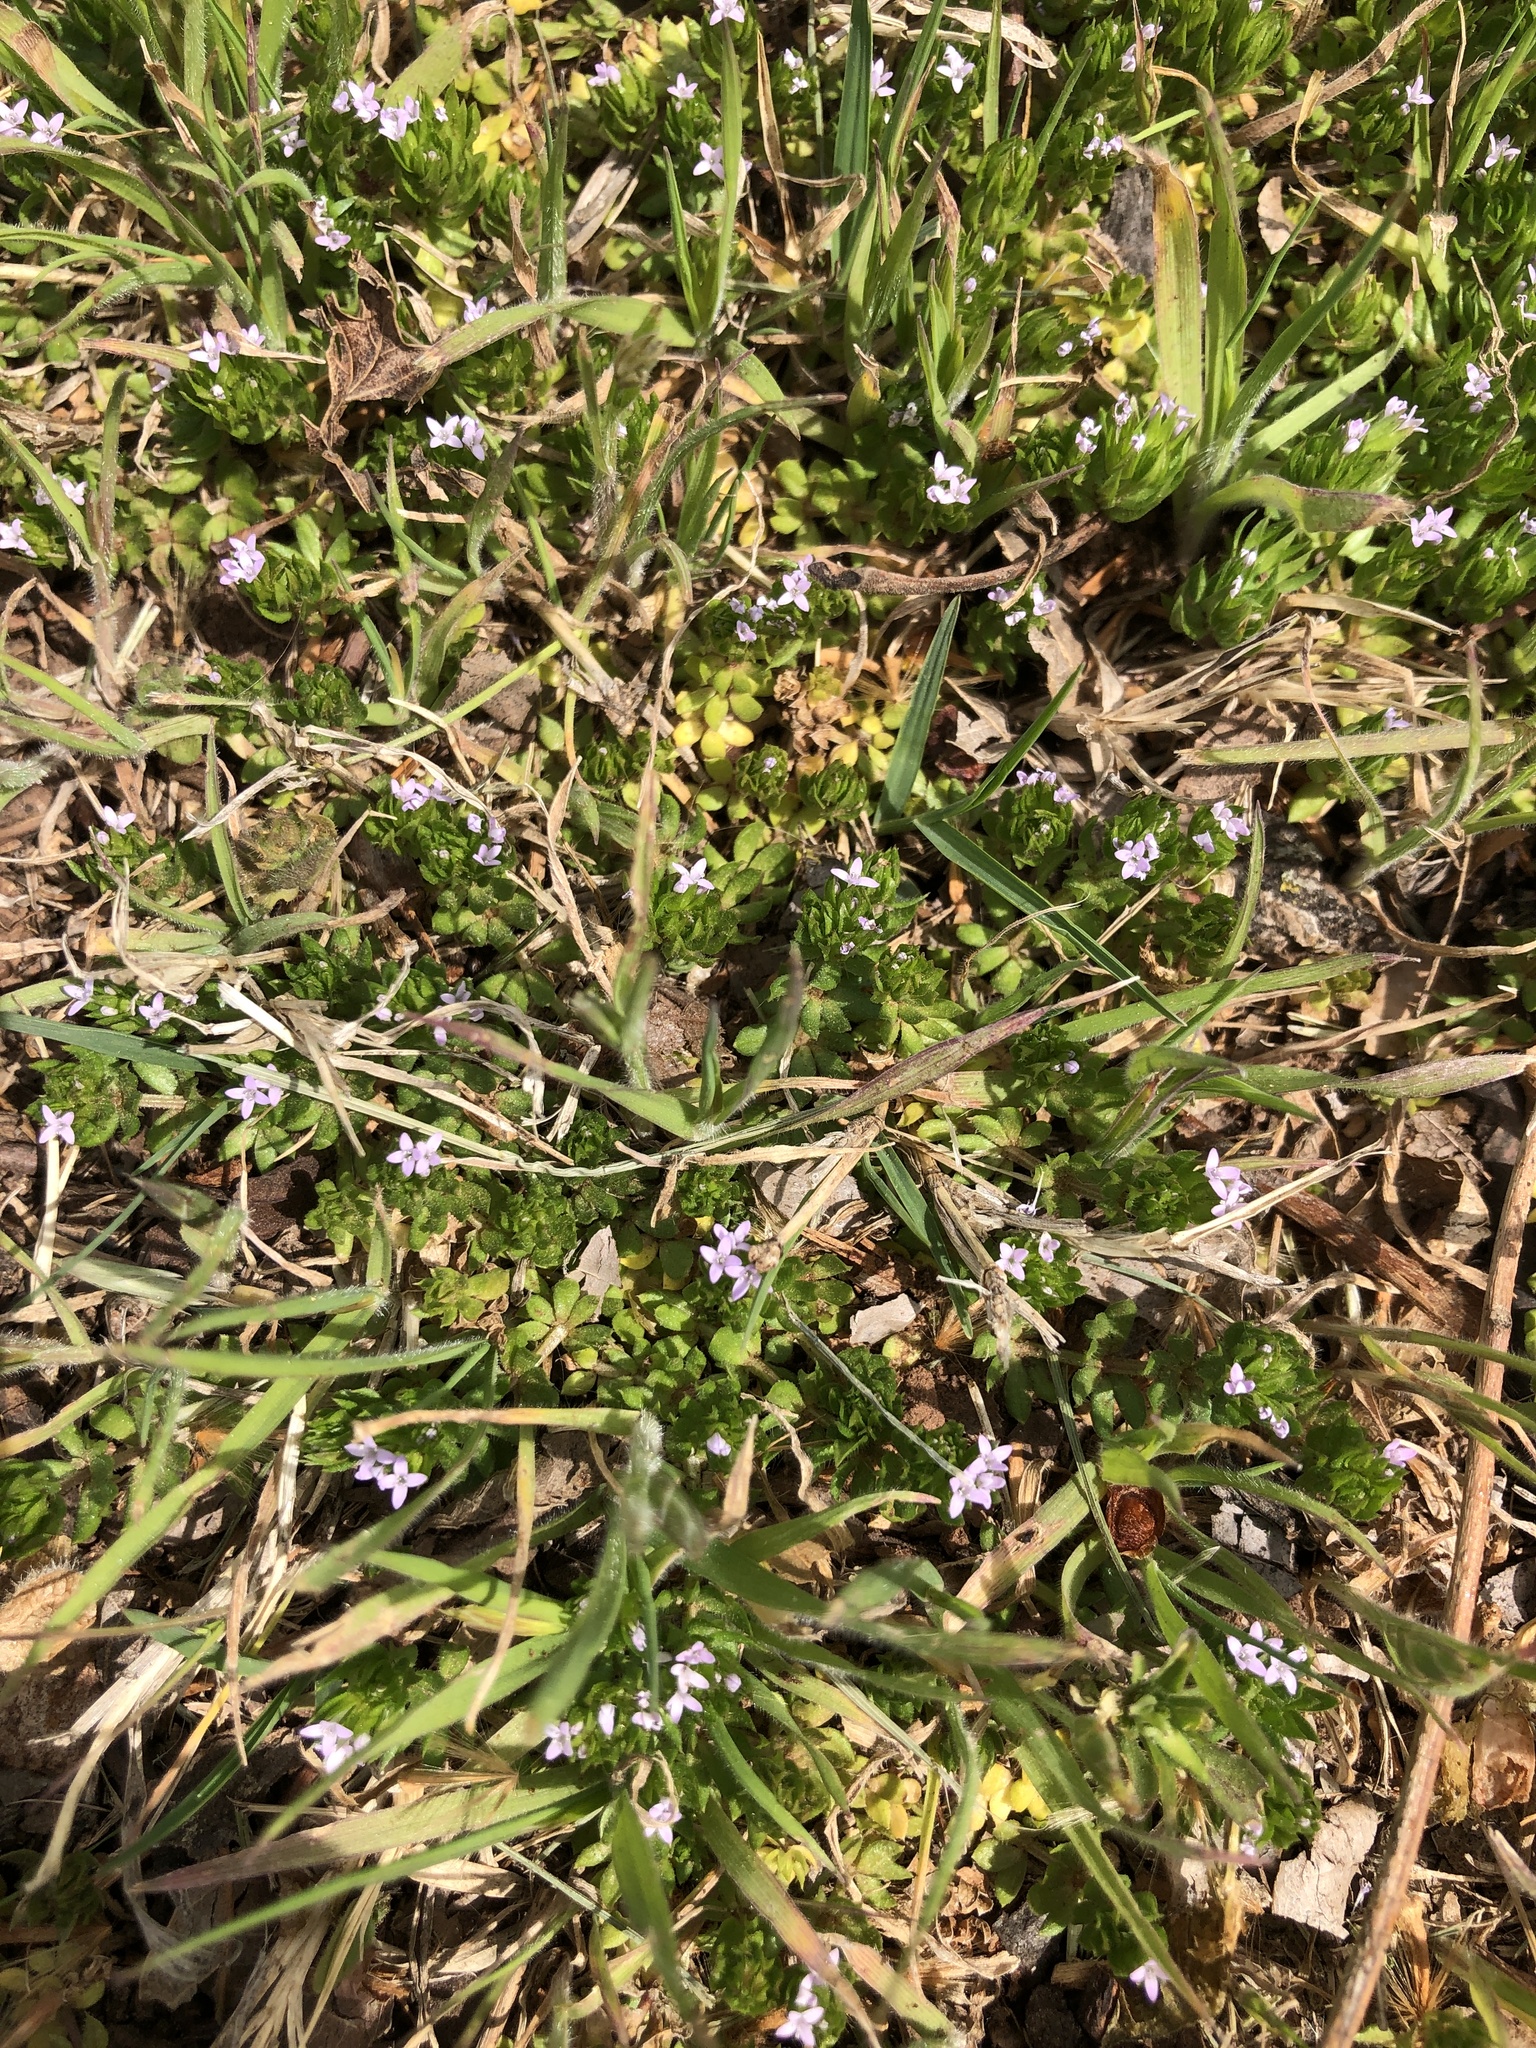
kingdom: Plantae
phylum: Tracheophyta
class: Magnoliopsida
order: Gentianales
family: Rubiaceae
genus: Sherardia
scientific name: Sherardia arvensis
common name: Field madder
